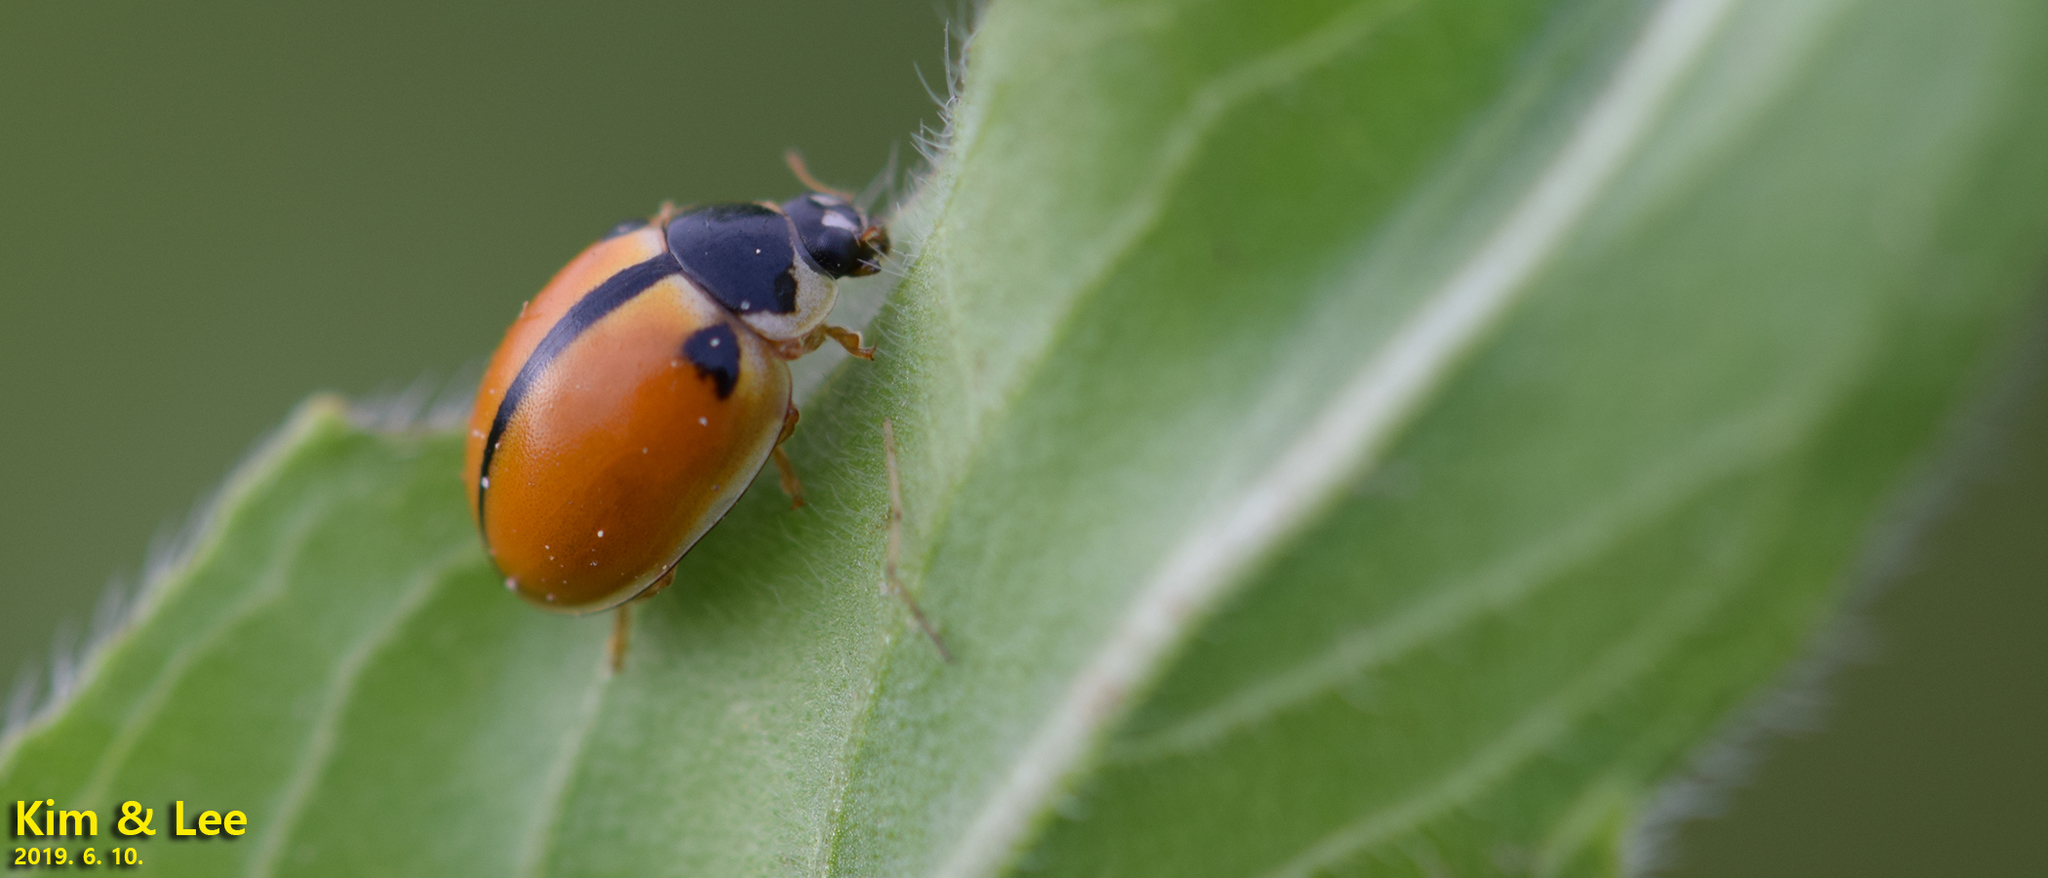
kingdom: Animalia
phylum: Arthropoda
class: Insecta
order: Coleoptera
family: Coccinellidae
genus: Propylea
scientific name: Propylea japonica
